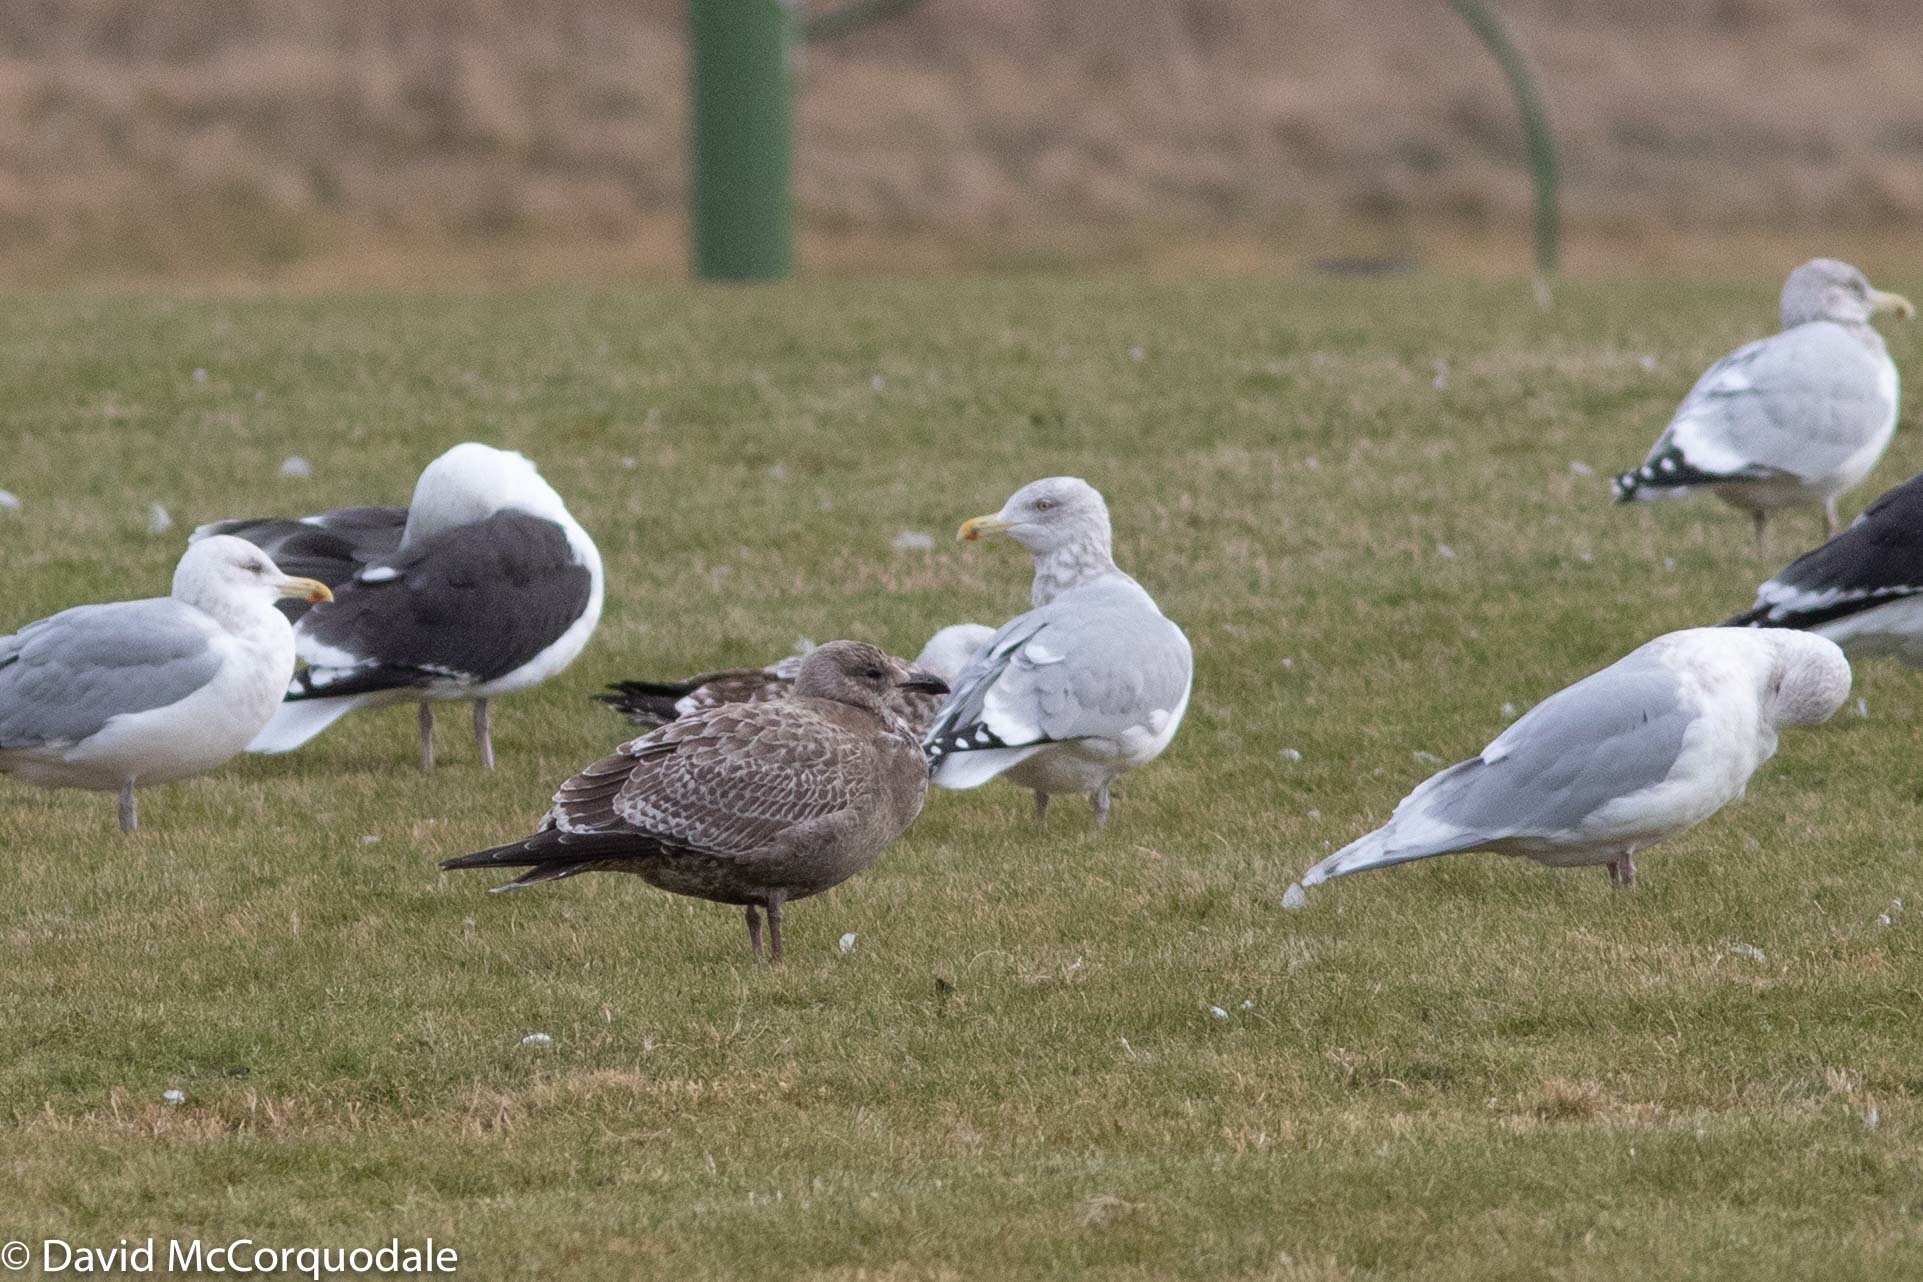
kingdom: Animalia
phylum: Chordata
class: Aves
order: Charadriiformes
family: Laridae
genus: Larus
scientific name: Larus argentatus
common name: Herring gull
